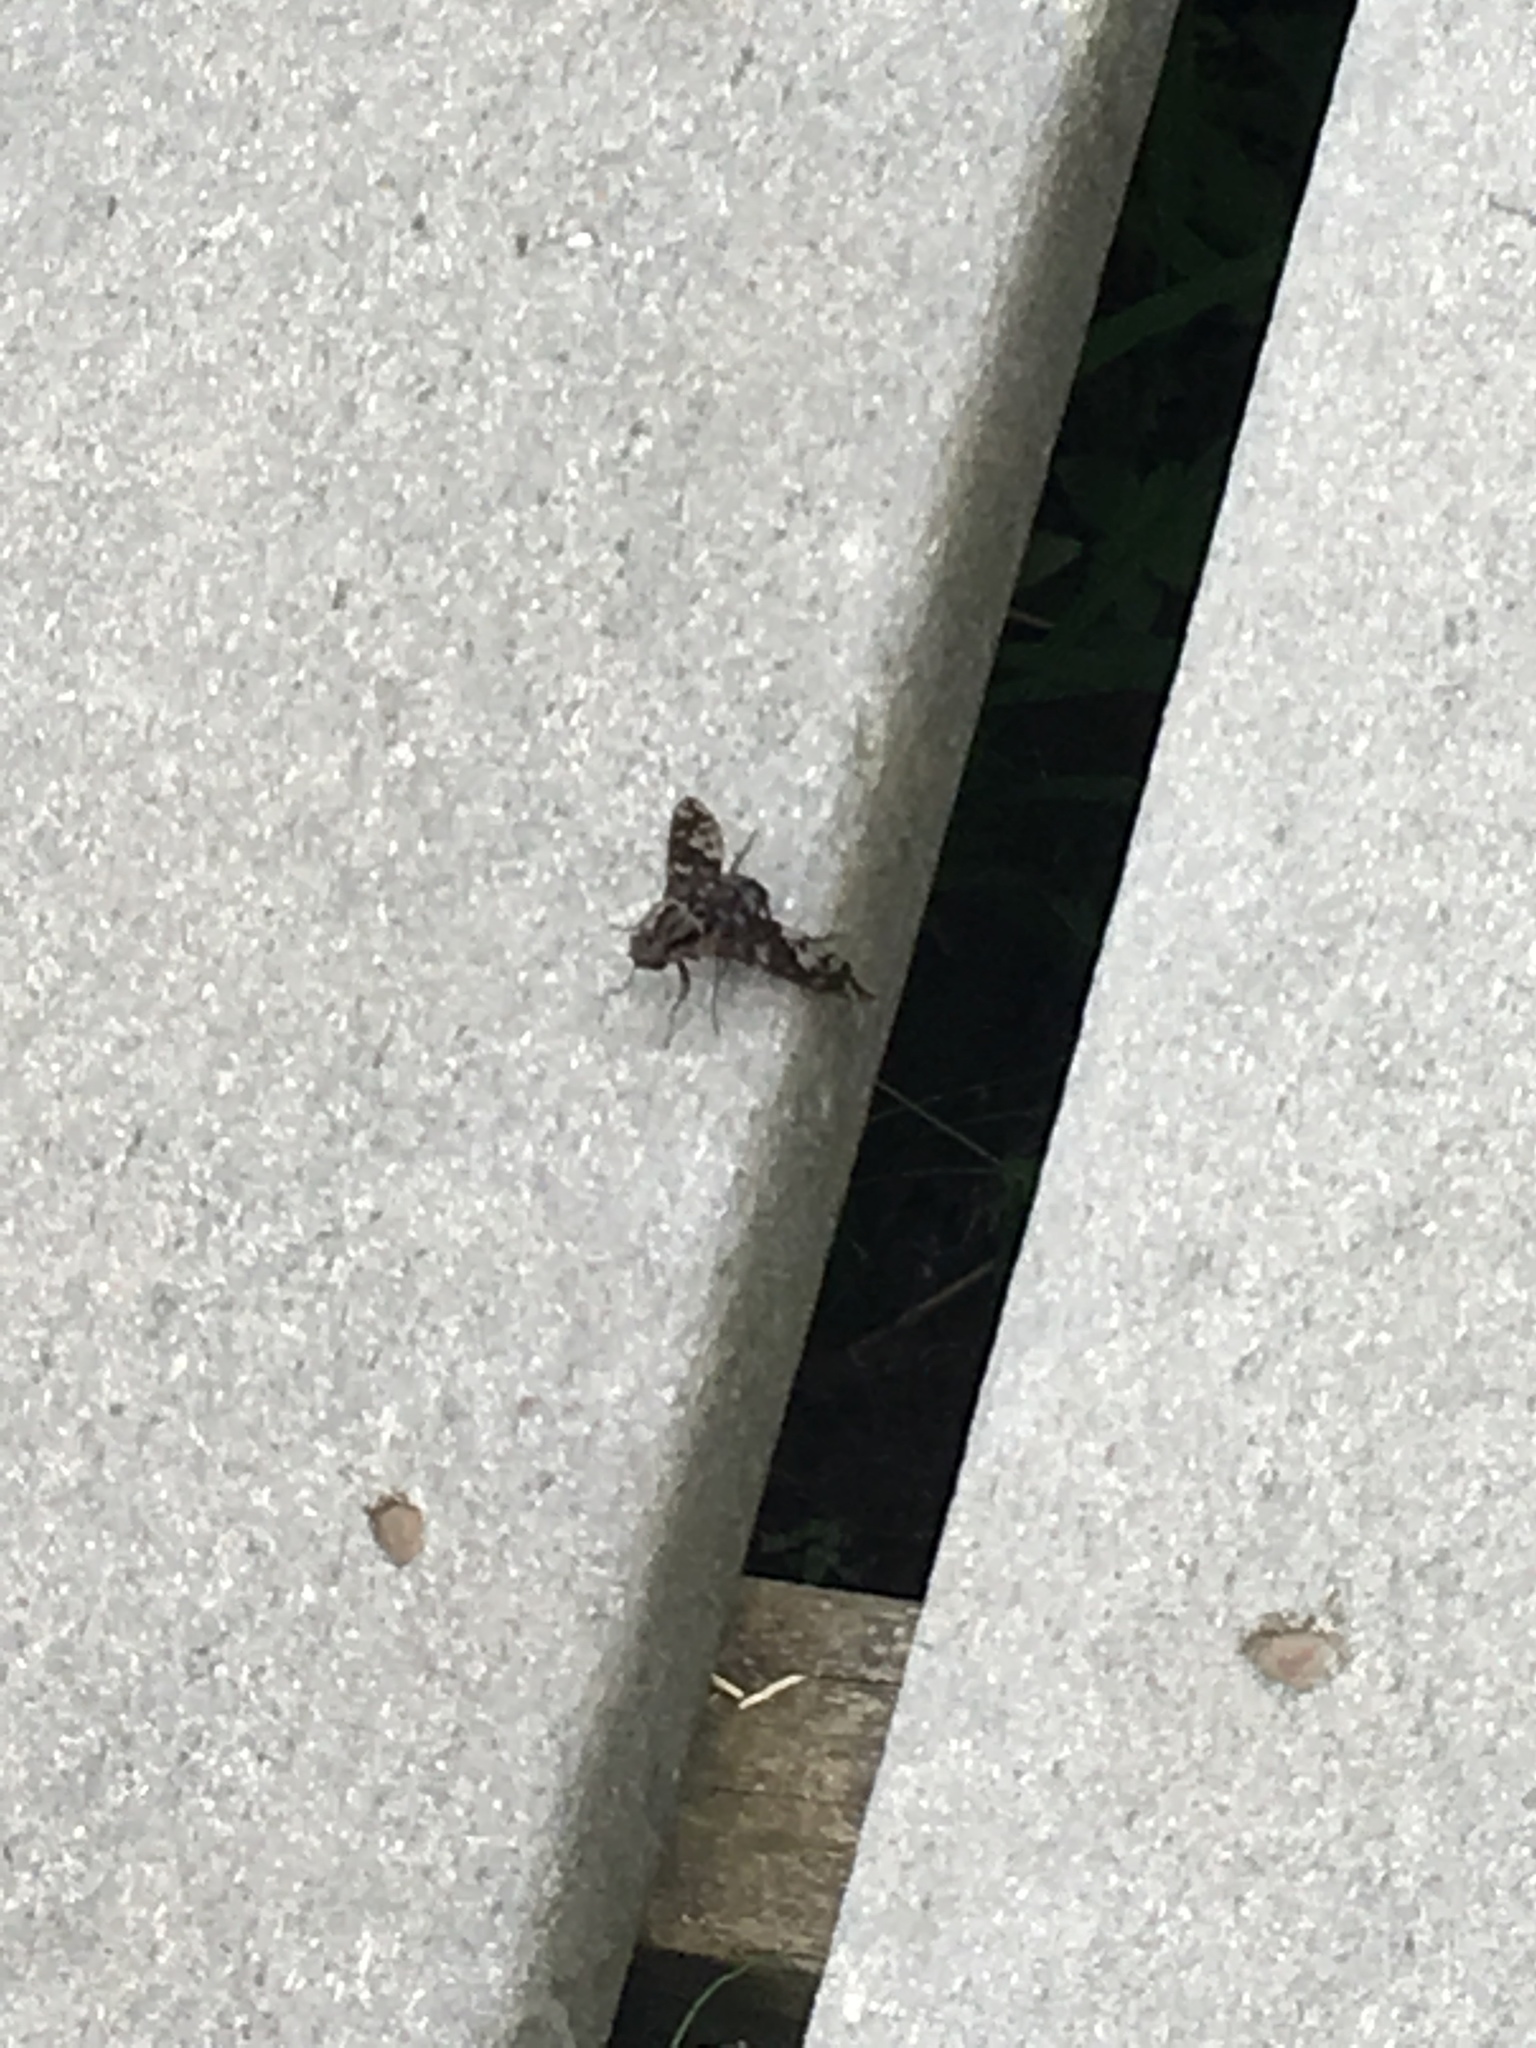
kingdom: Animalia
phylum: Arthropoda
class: Insecta
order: Diptera
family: Bombyliidae
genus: Xenox
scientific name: Xenox tigrinus
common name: Tiger bee fly
